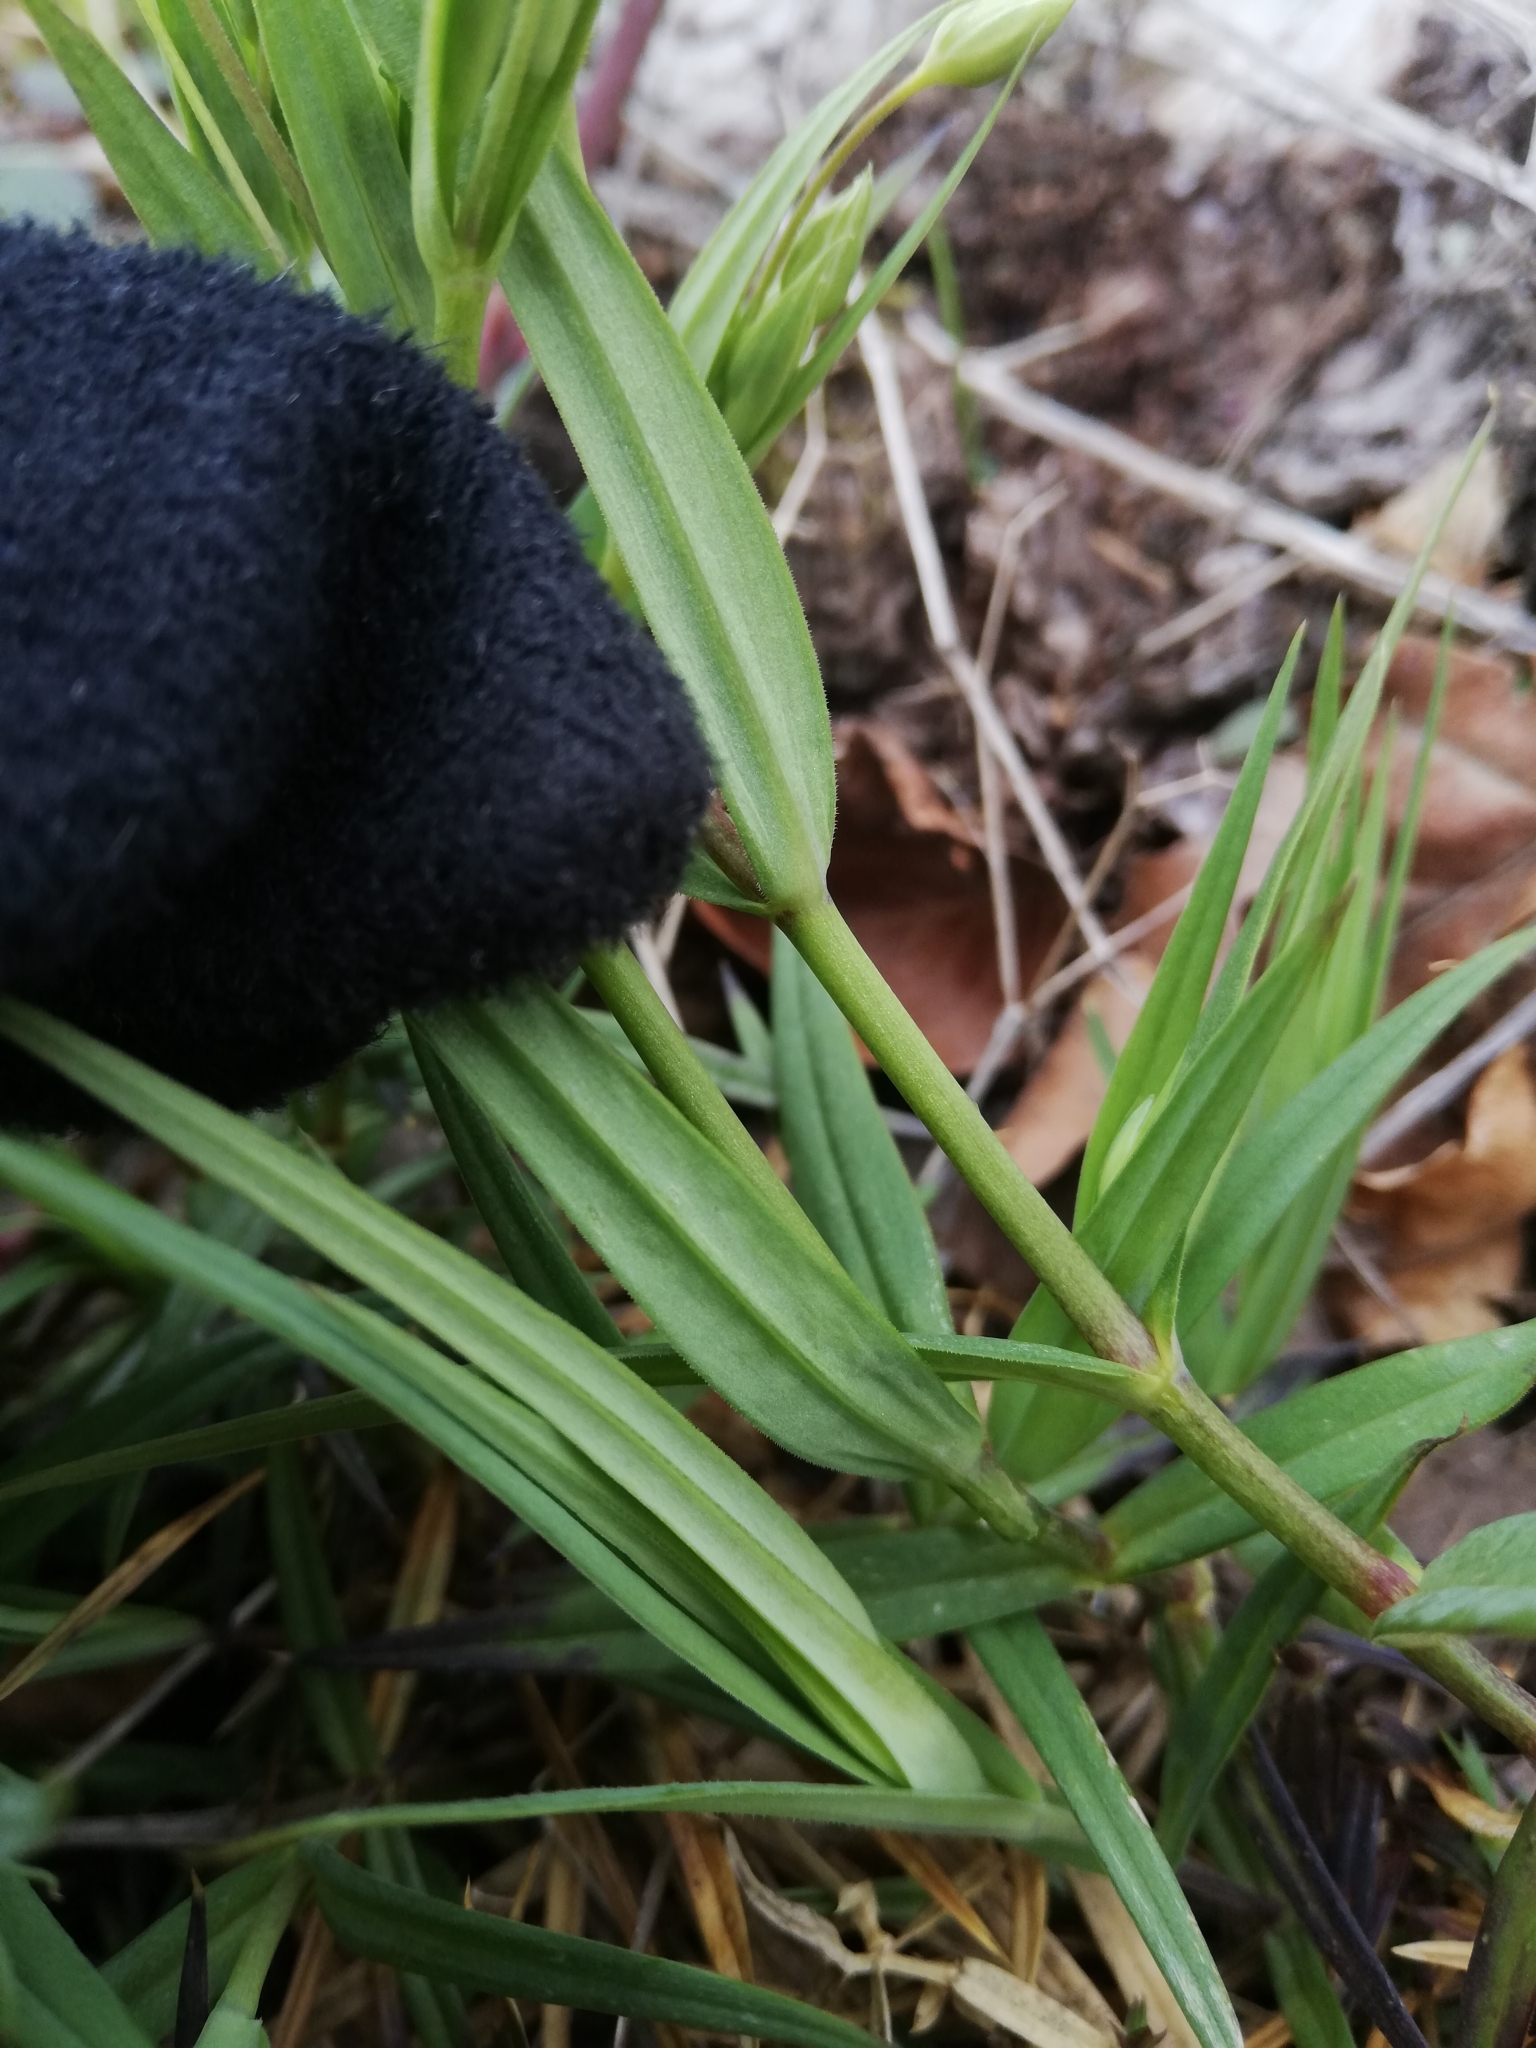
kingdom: Plantae
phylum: Tracheophyta
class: Magnoliopsida
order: Caryophyllales
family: Caryophyllaceae
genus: Rabelera
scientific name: Rabelera holostea
